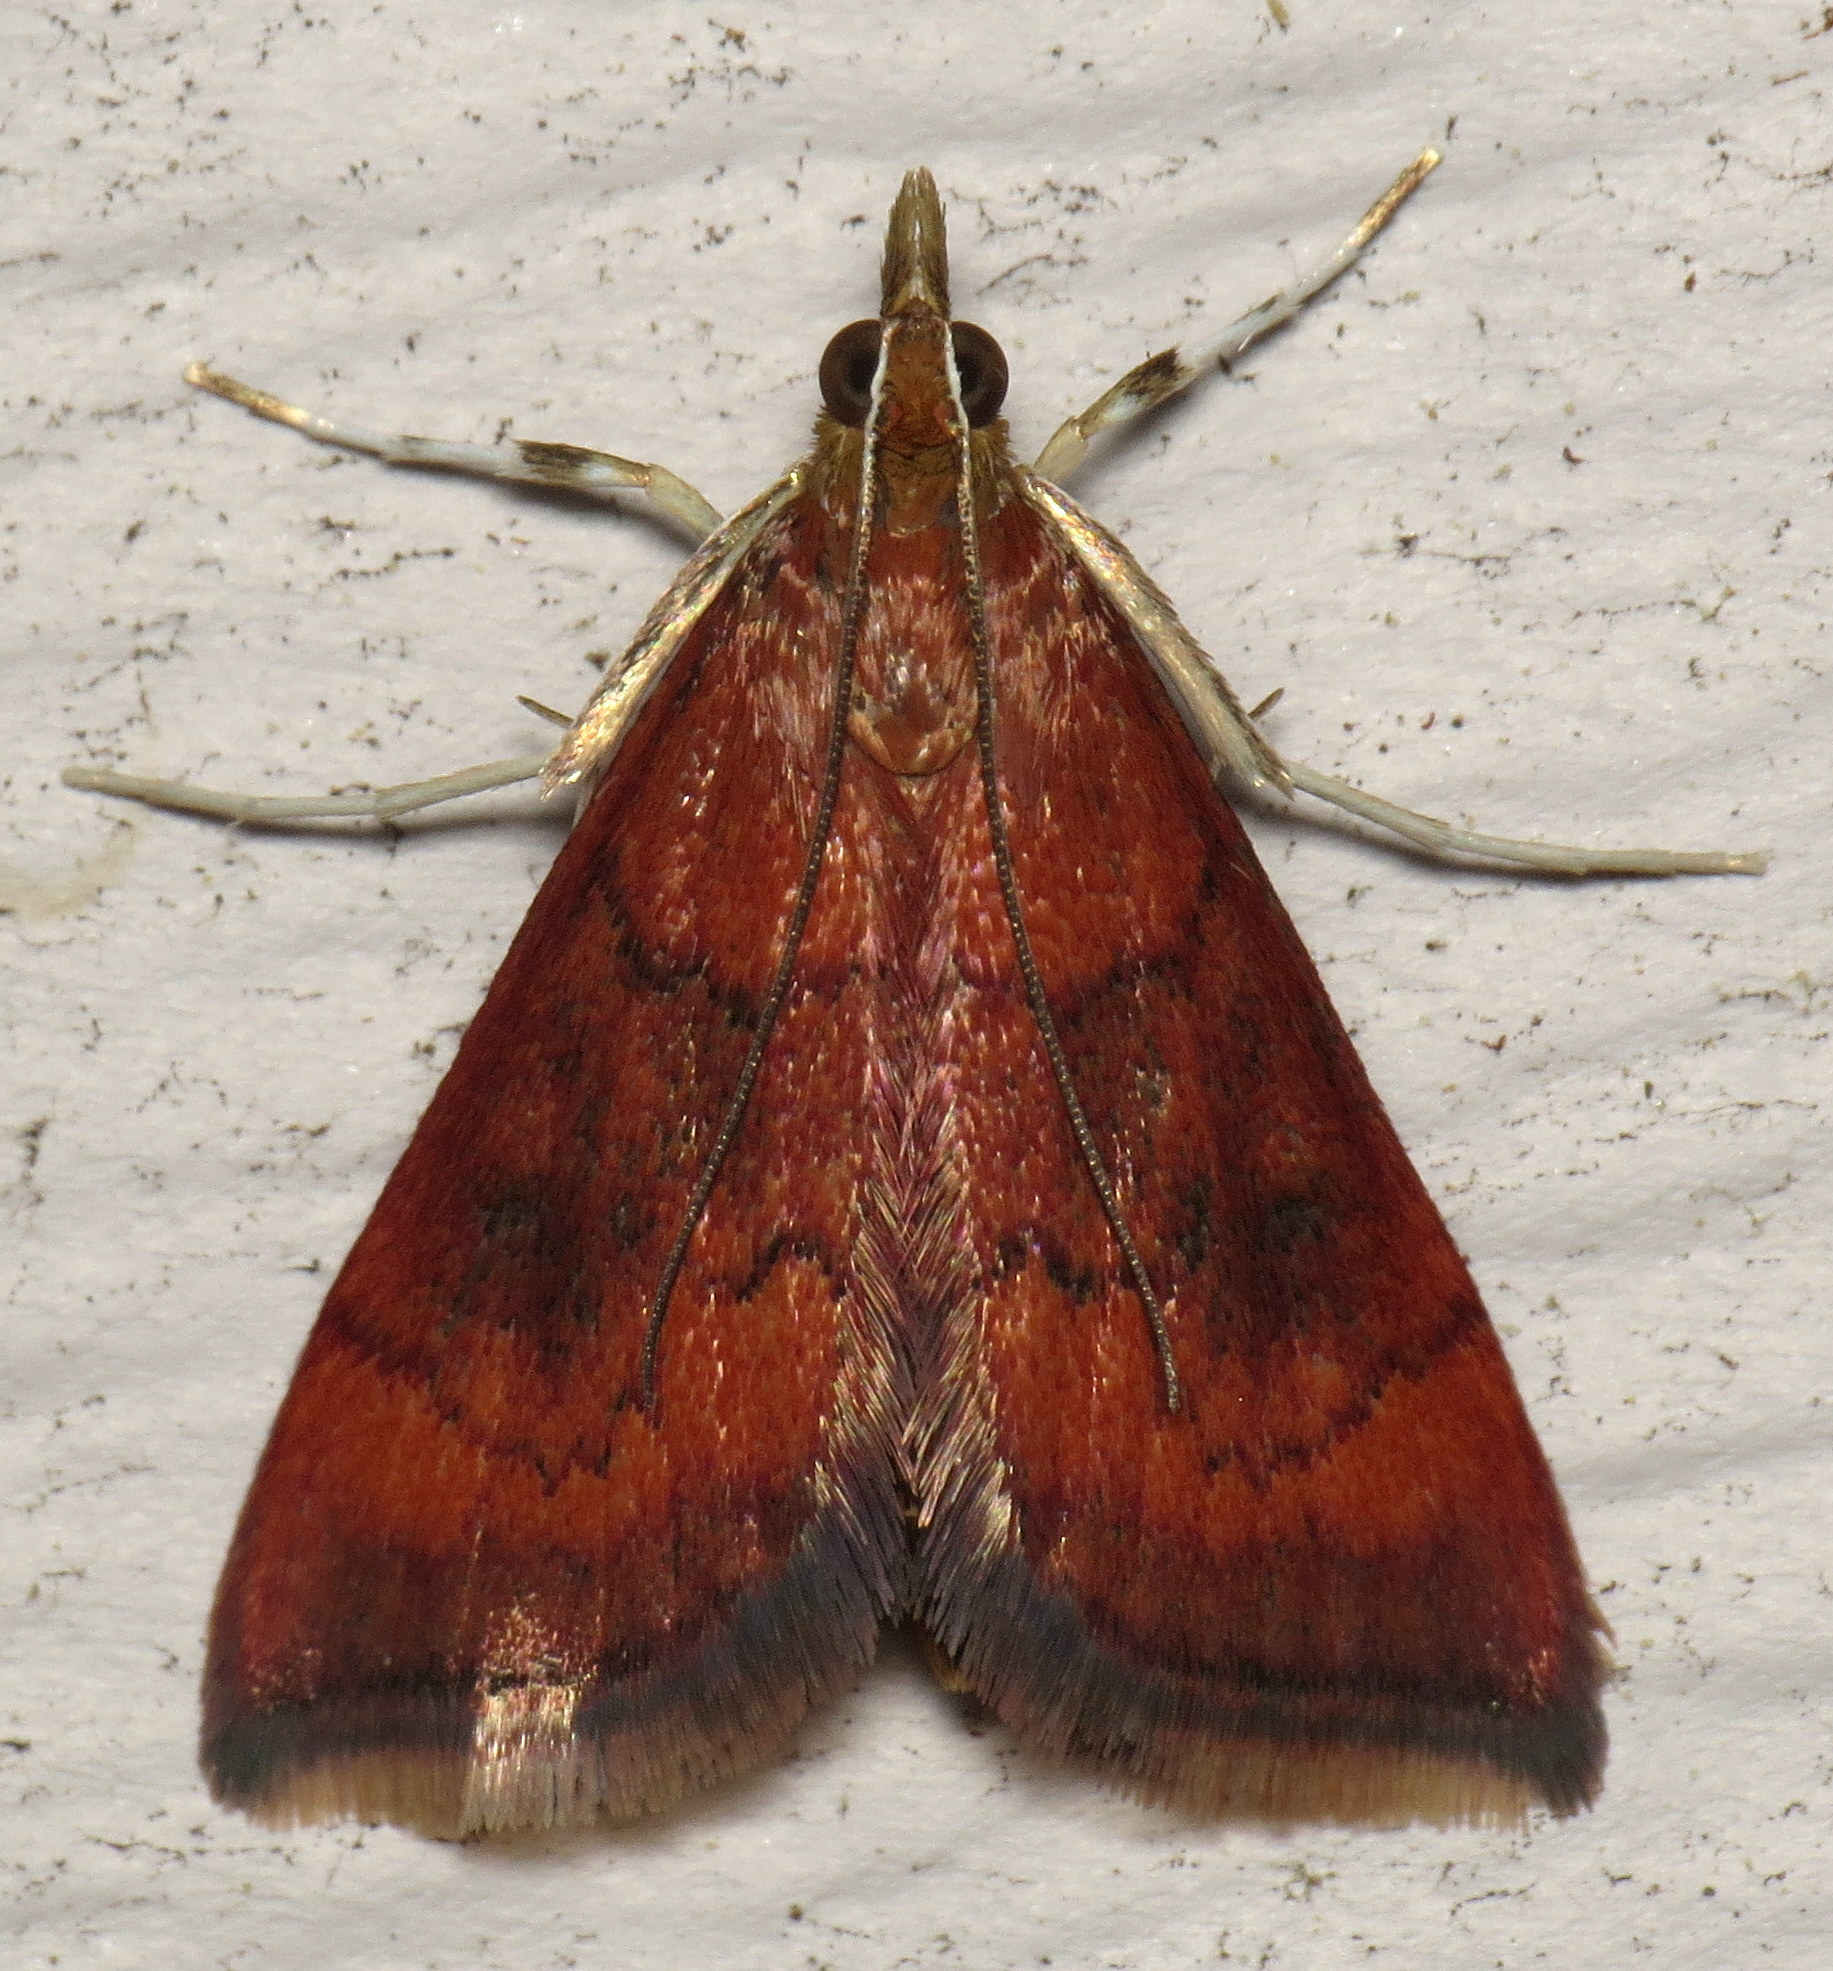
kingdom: Animalia
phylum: Arthropoda
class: Insecta
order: Lepidoptera
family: Crambidae
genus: Pyrausta
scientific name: Pyrausta rubricalis
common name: Variable reddish pyrausta
